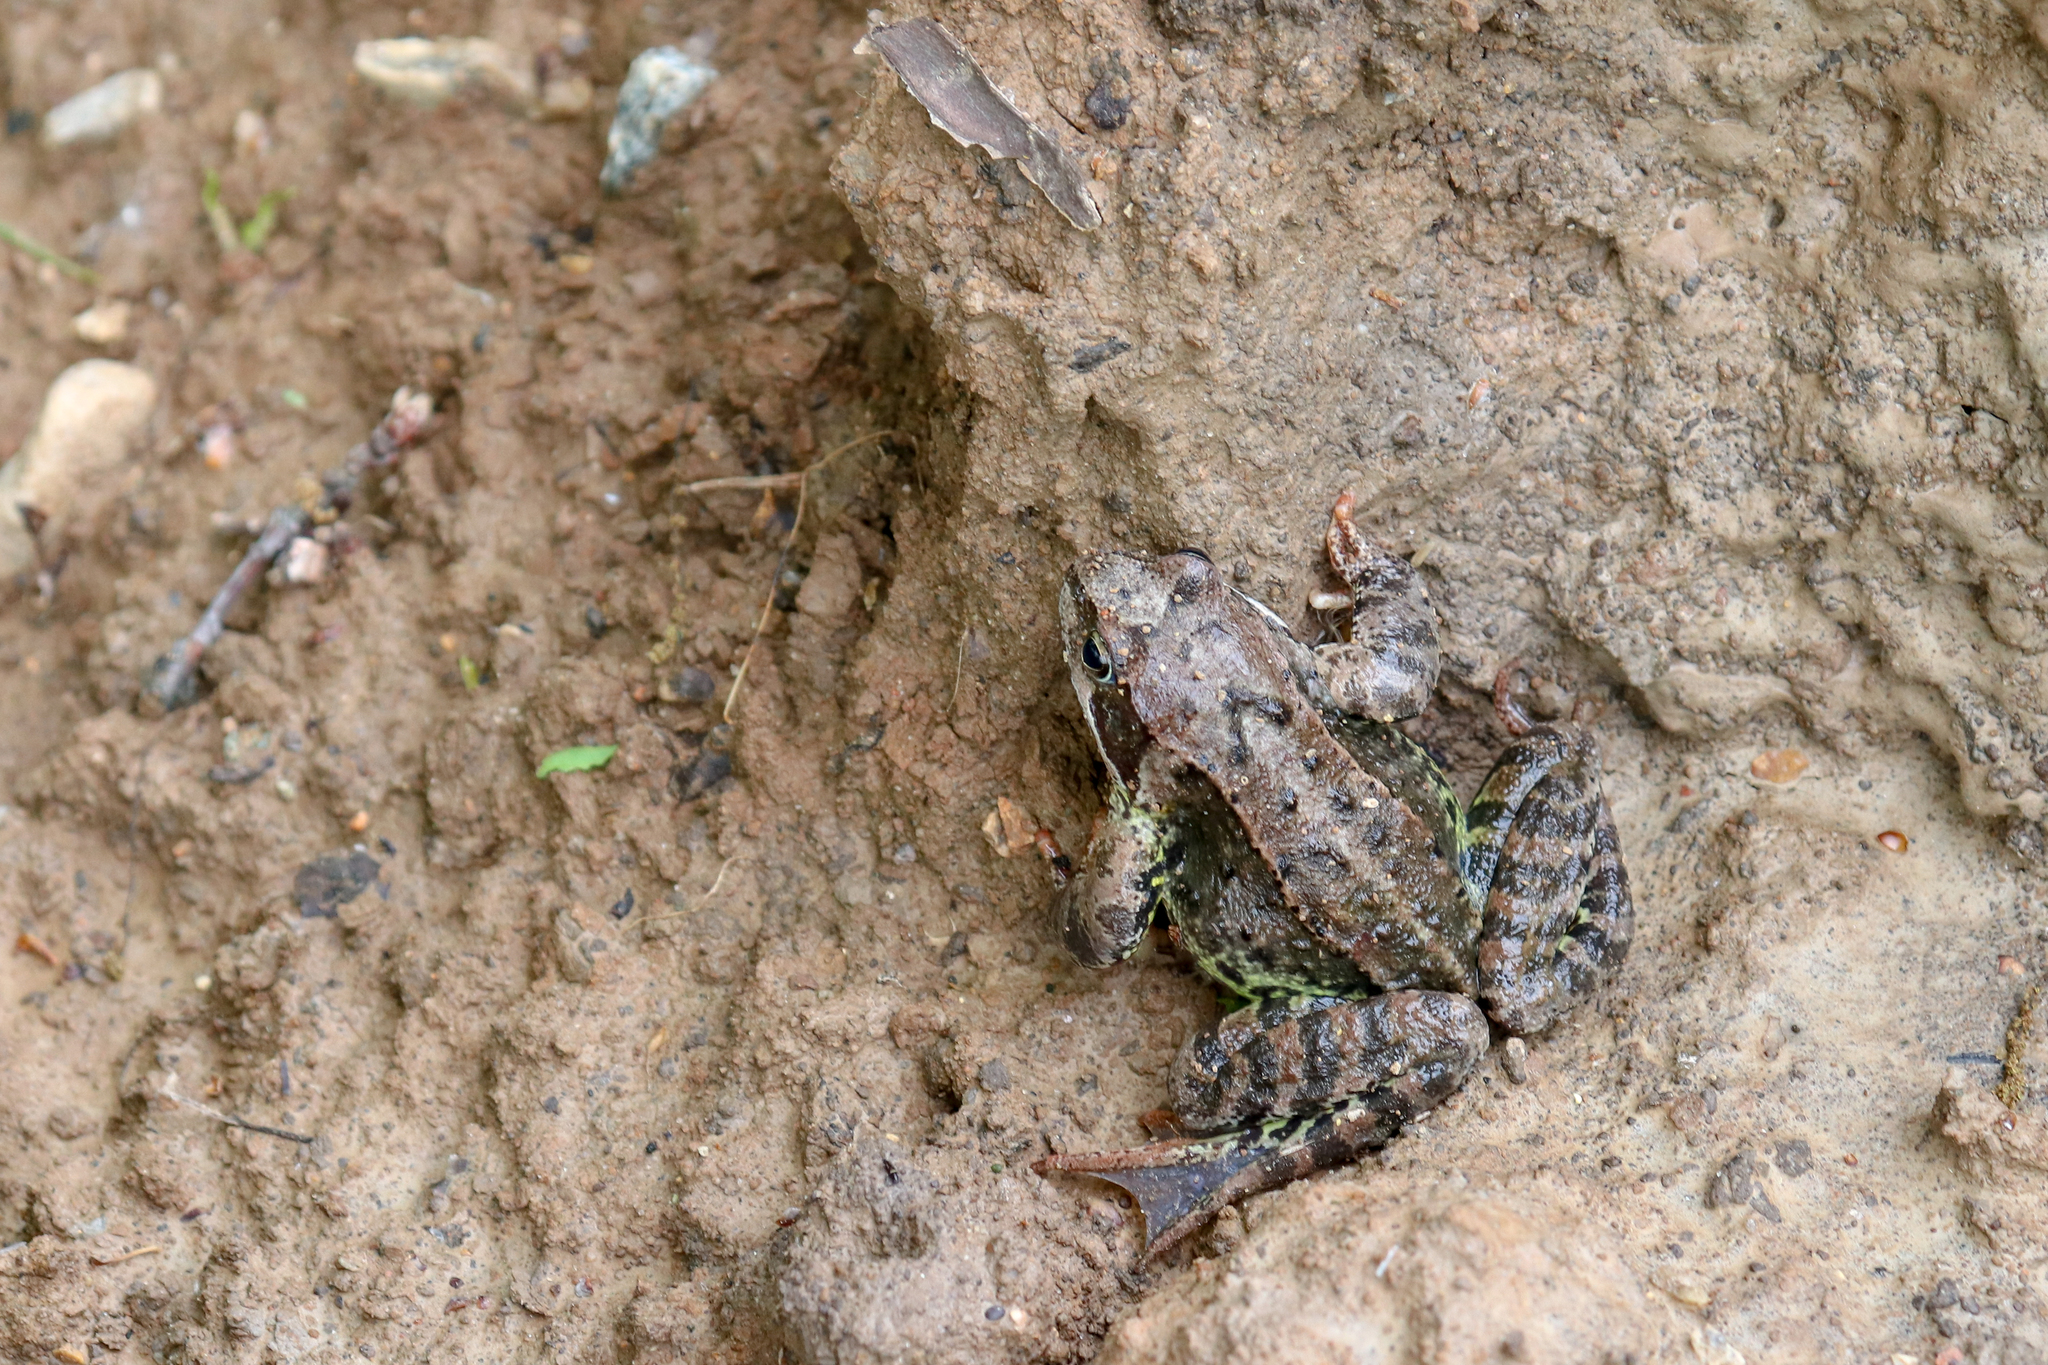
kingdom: Animalia
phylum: Chordata
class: Amphibia
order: Anura
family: Ranidae
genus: Rana
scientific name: Rana temporaria
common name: Common frog
